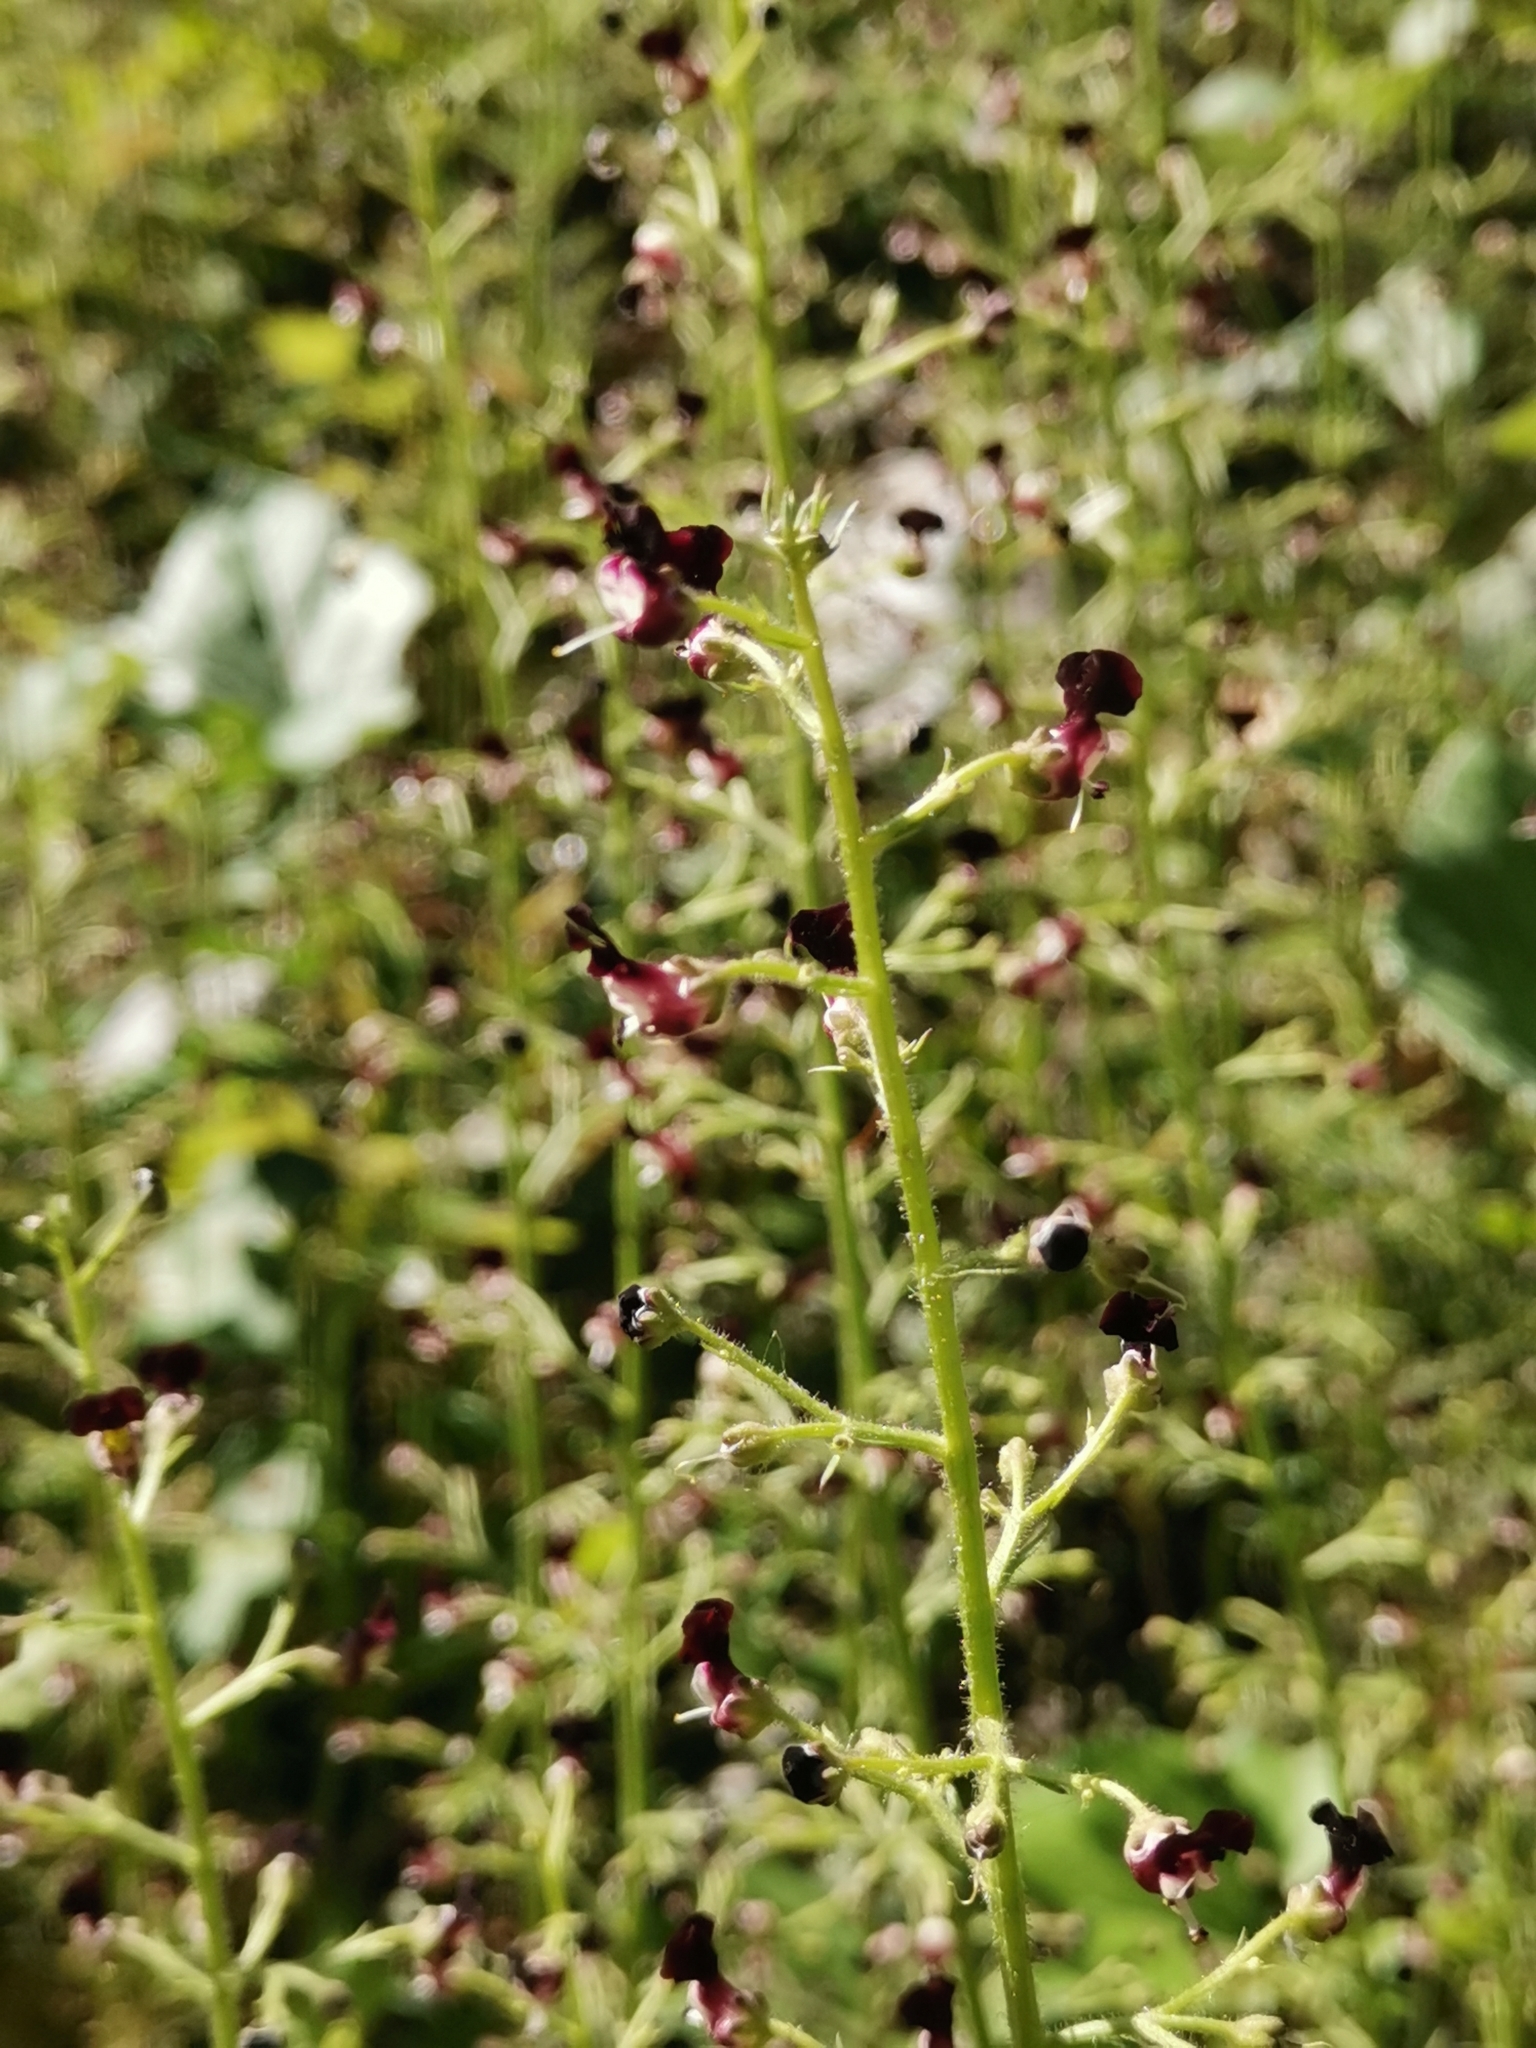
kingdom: Plantae
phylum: Tracheophyta
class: Magnoliopsida
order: Lamiales
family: Scrophulariaceae
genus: Scrophularia
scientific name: Scrophularia canina
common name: French figwort
